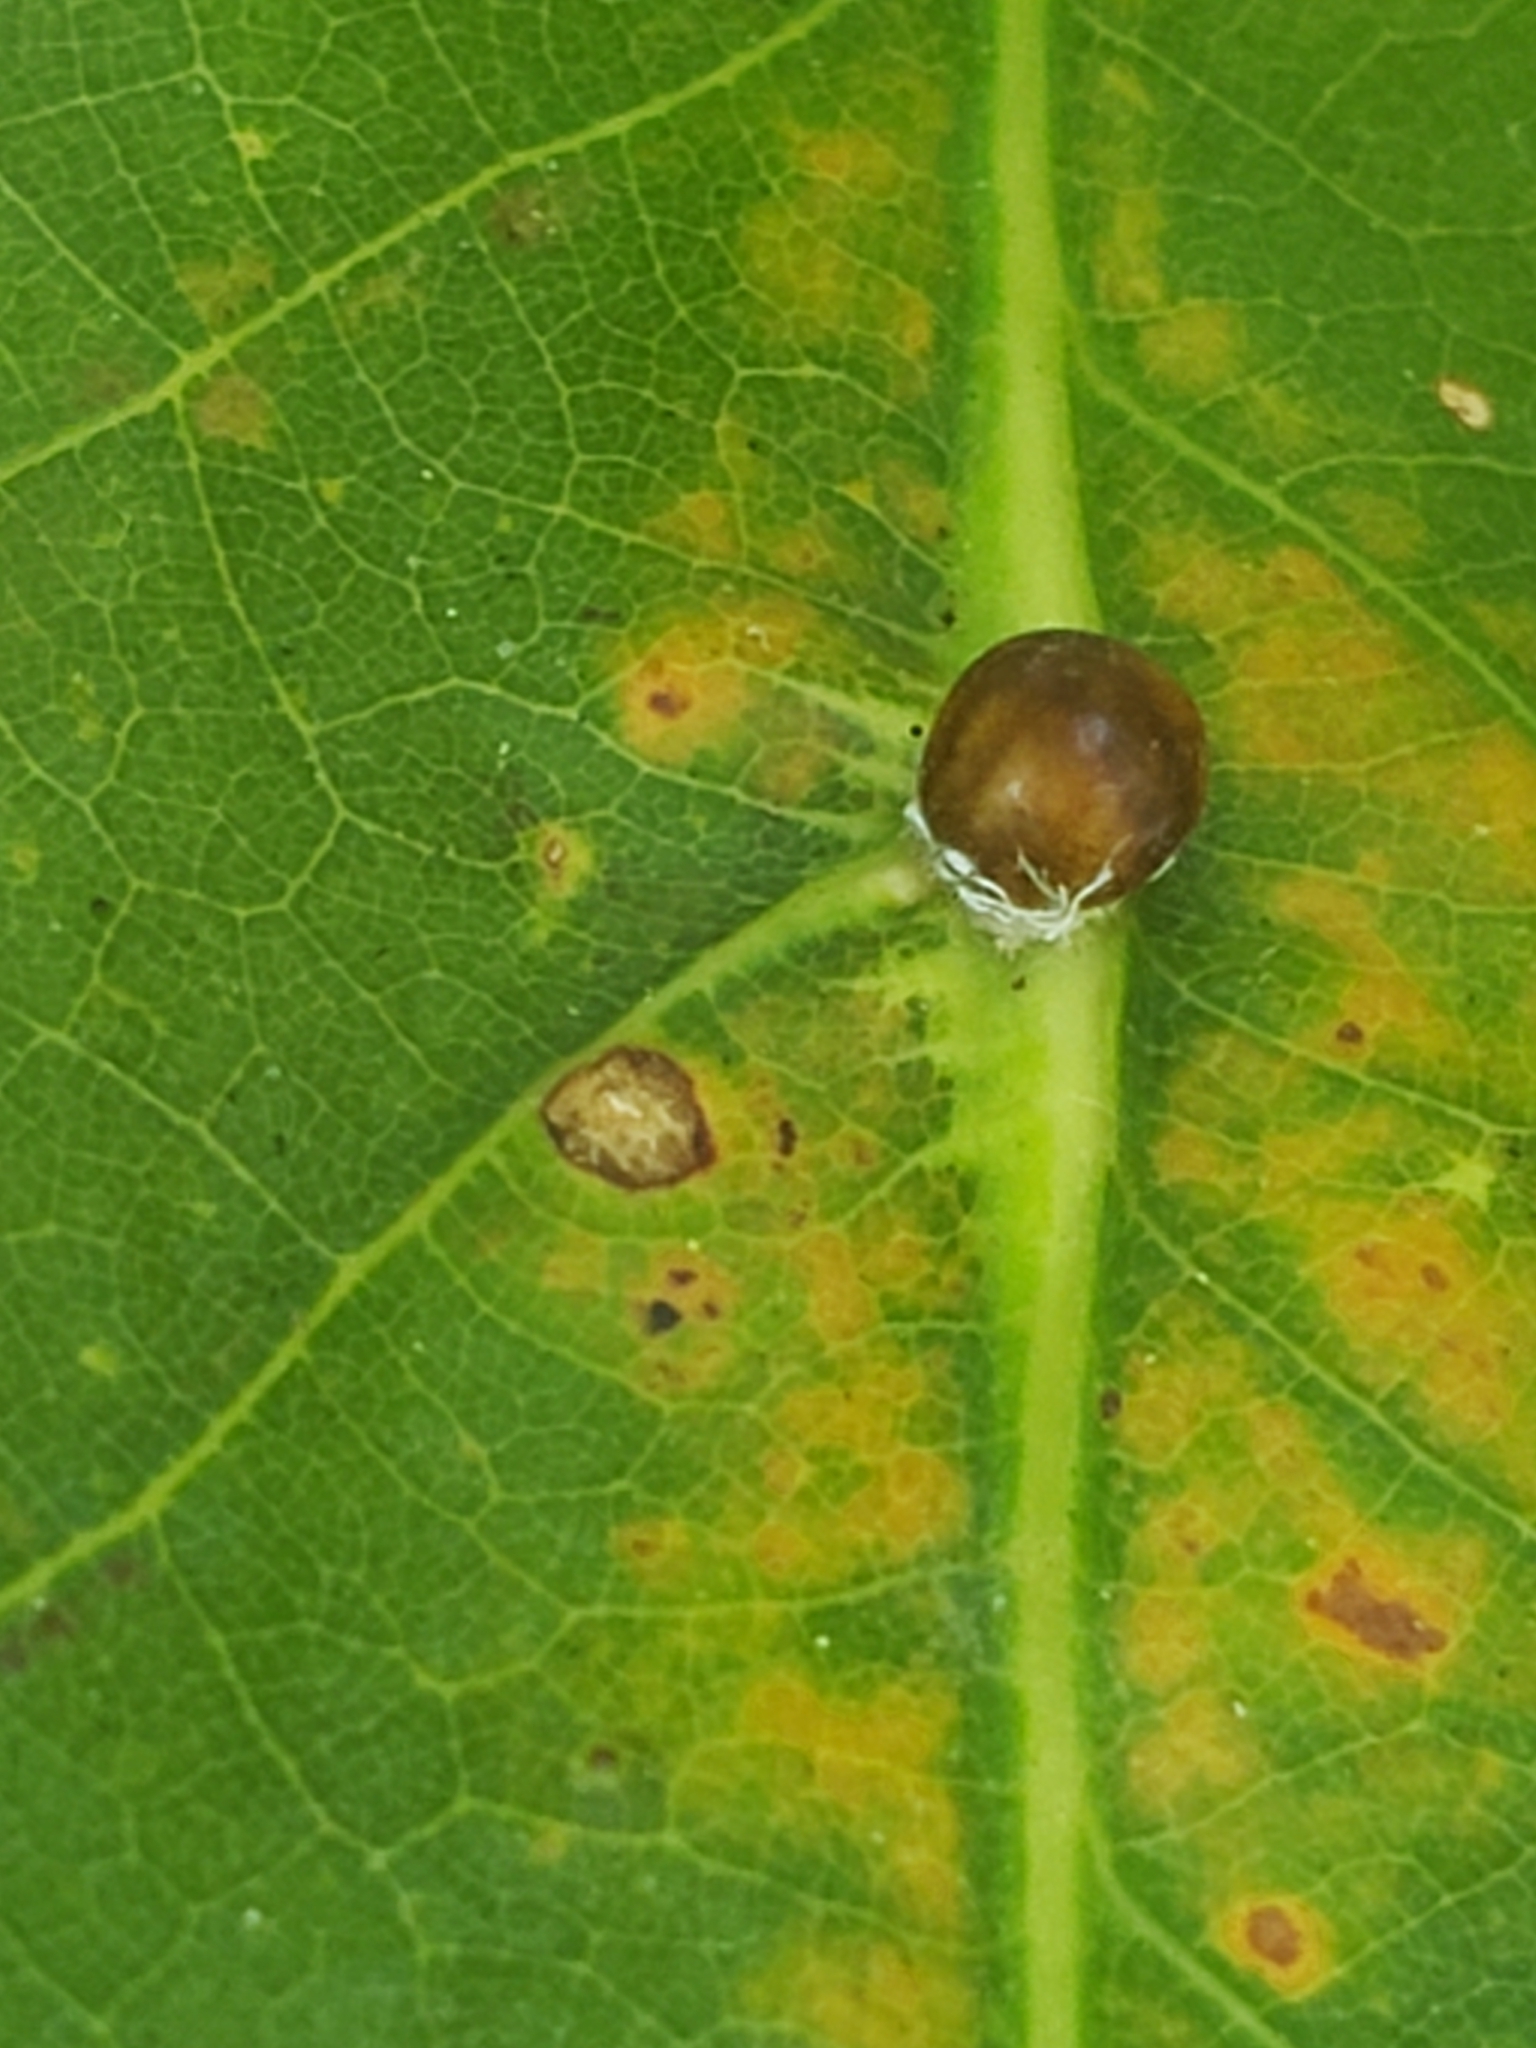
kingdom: Animalia
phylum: Arthropoda
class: Insecta
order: Hemiptera
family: Kermesidae
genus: Nanokermes
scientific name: Nanokermes folium
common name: Leaf kermes
